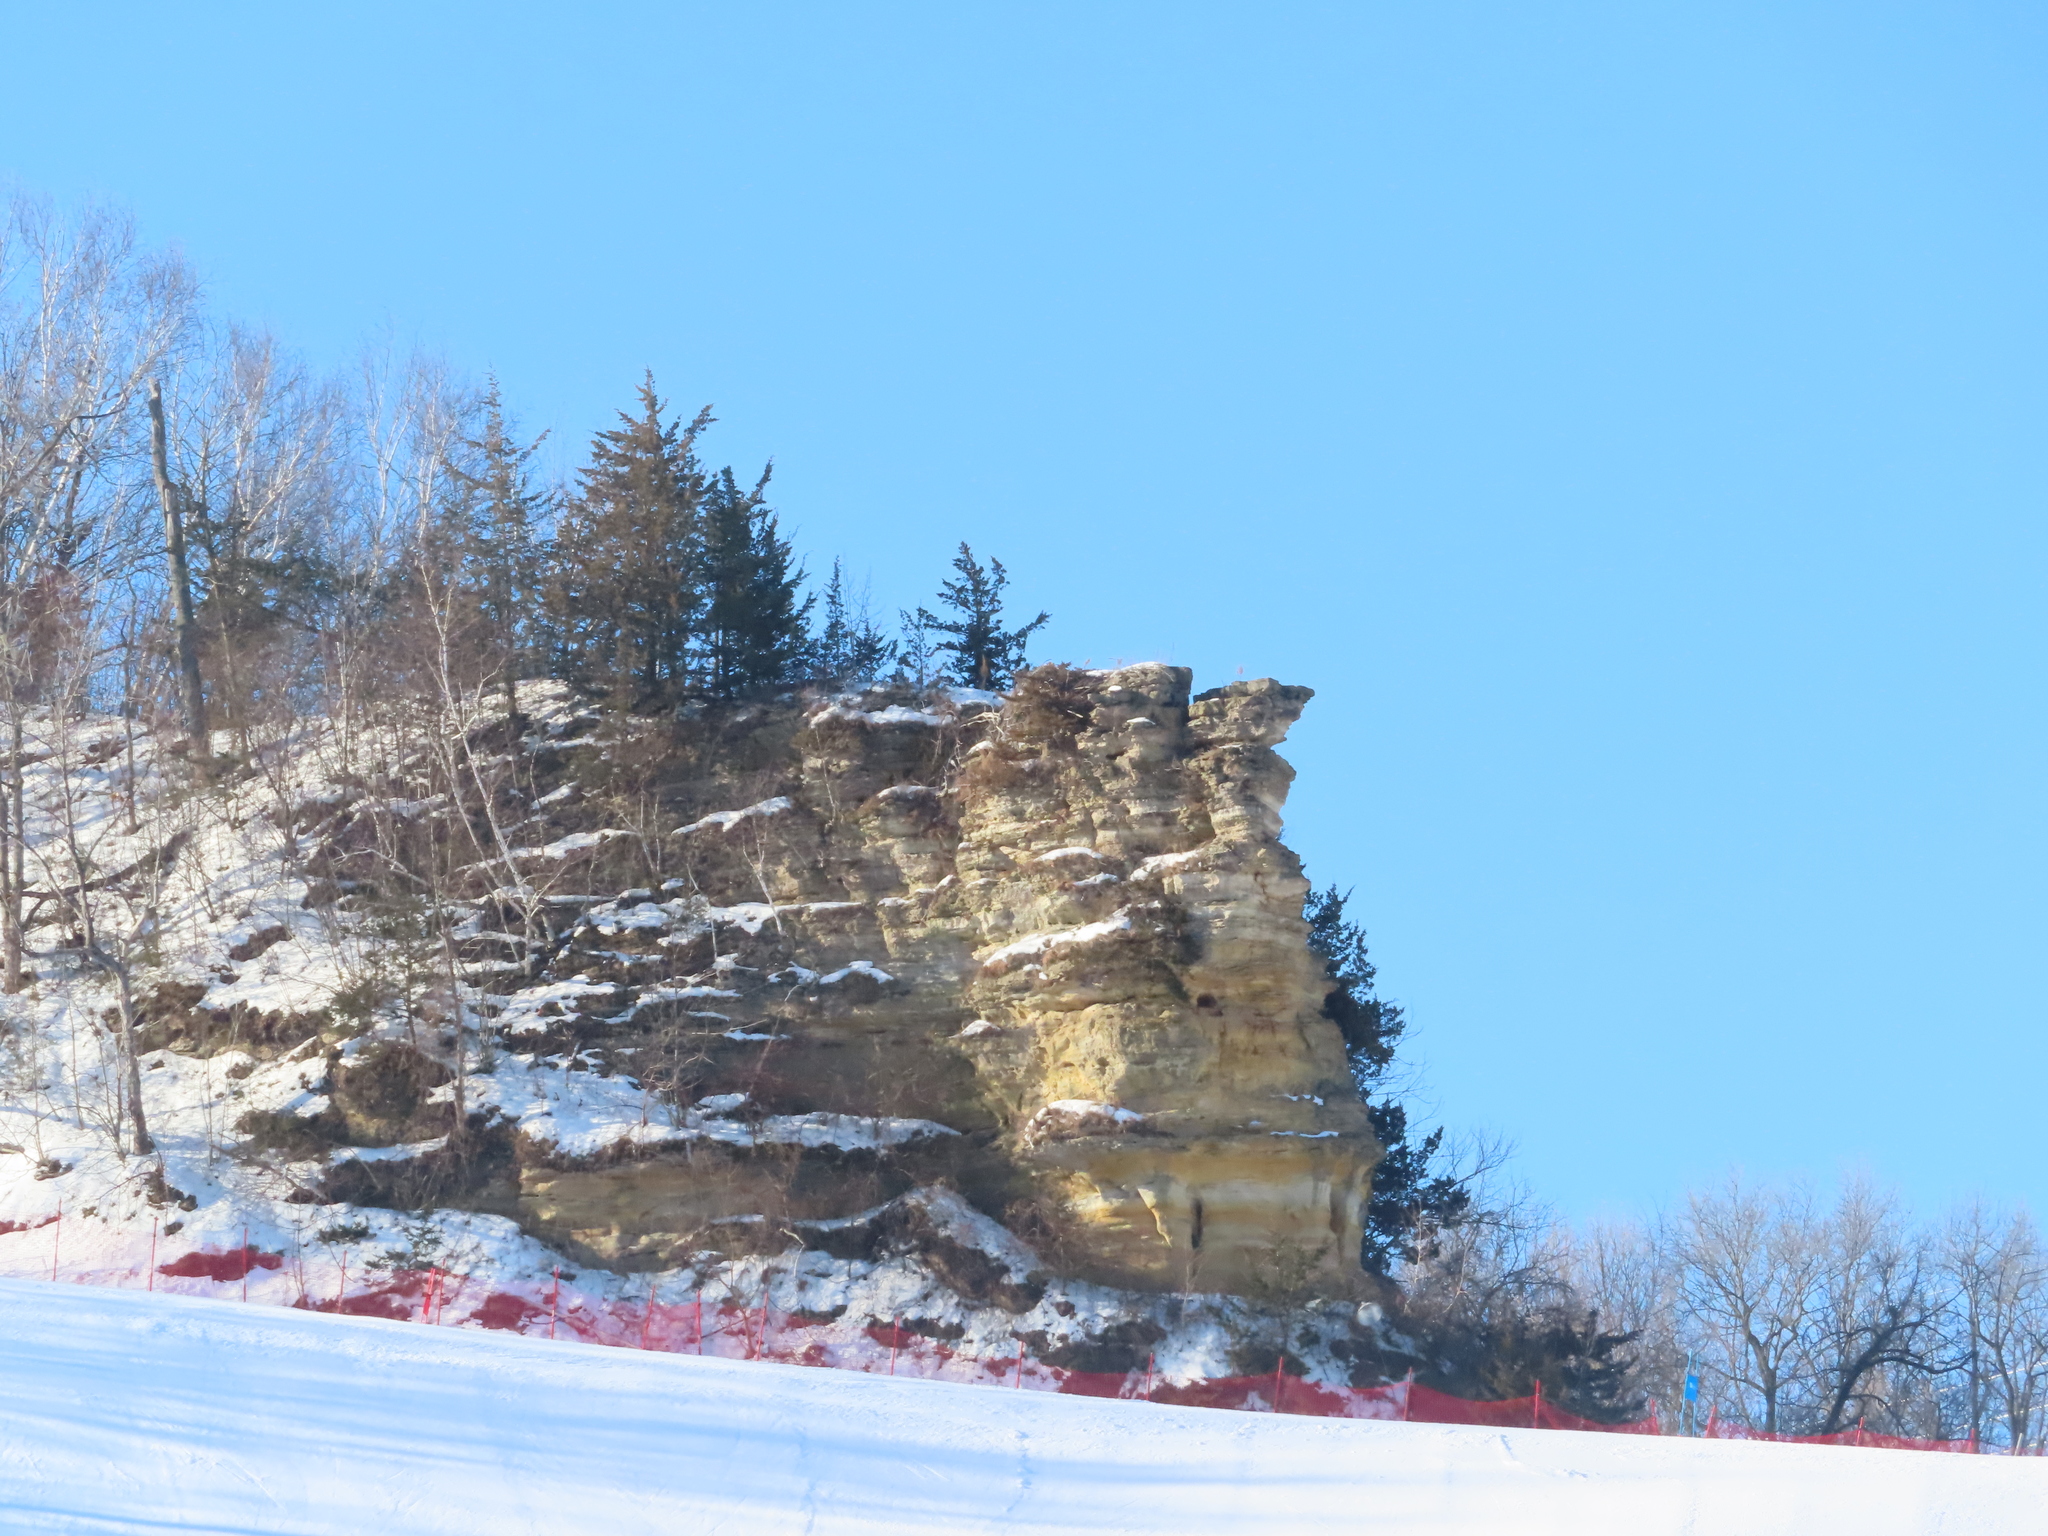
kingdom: Plantae
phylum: Tracheophyta
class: Pinopsida
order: Pinales
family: Cupressaceae
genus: Juniperus
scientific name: Juniperus virginiana
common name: Red juniper
